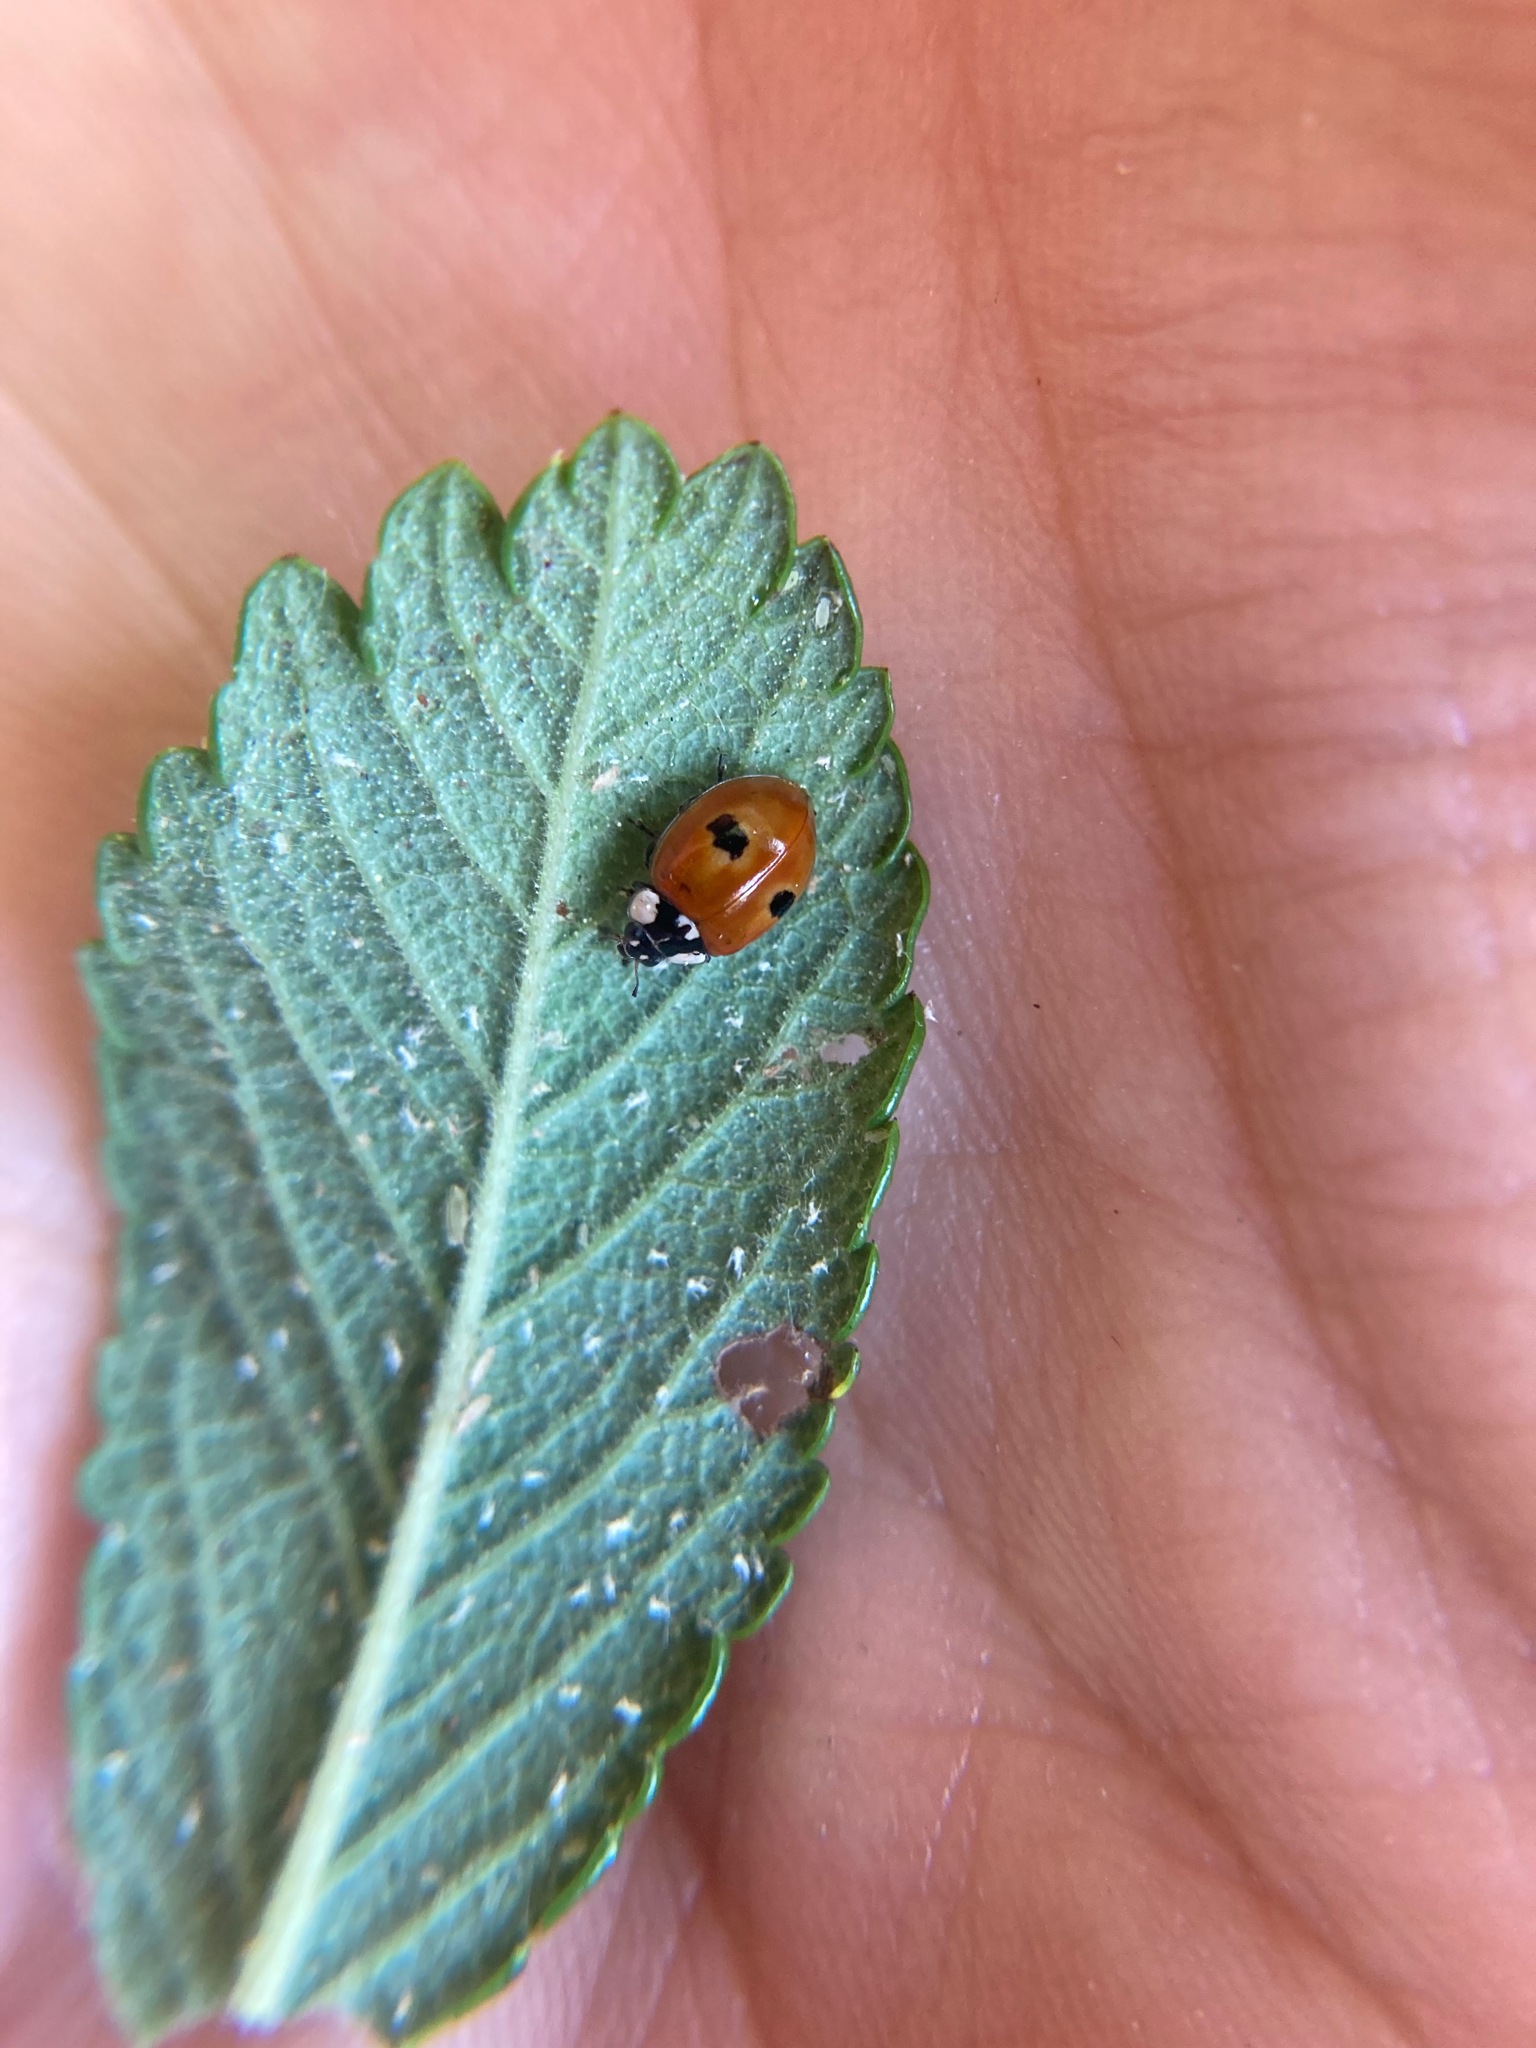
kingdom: Animalia
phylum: Arthropoda
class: Insecta
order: Coleoptera
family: Coccinellidae
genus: Adalia
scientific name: Adalia bipunctata
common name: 2-spot ladybird
